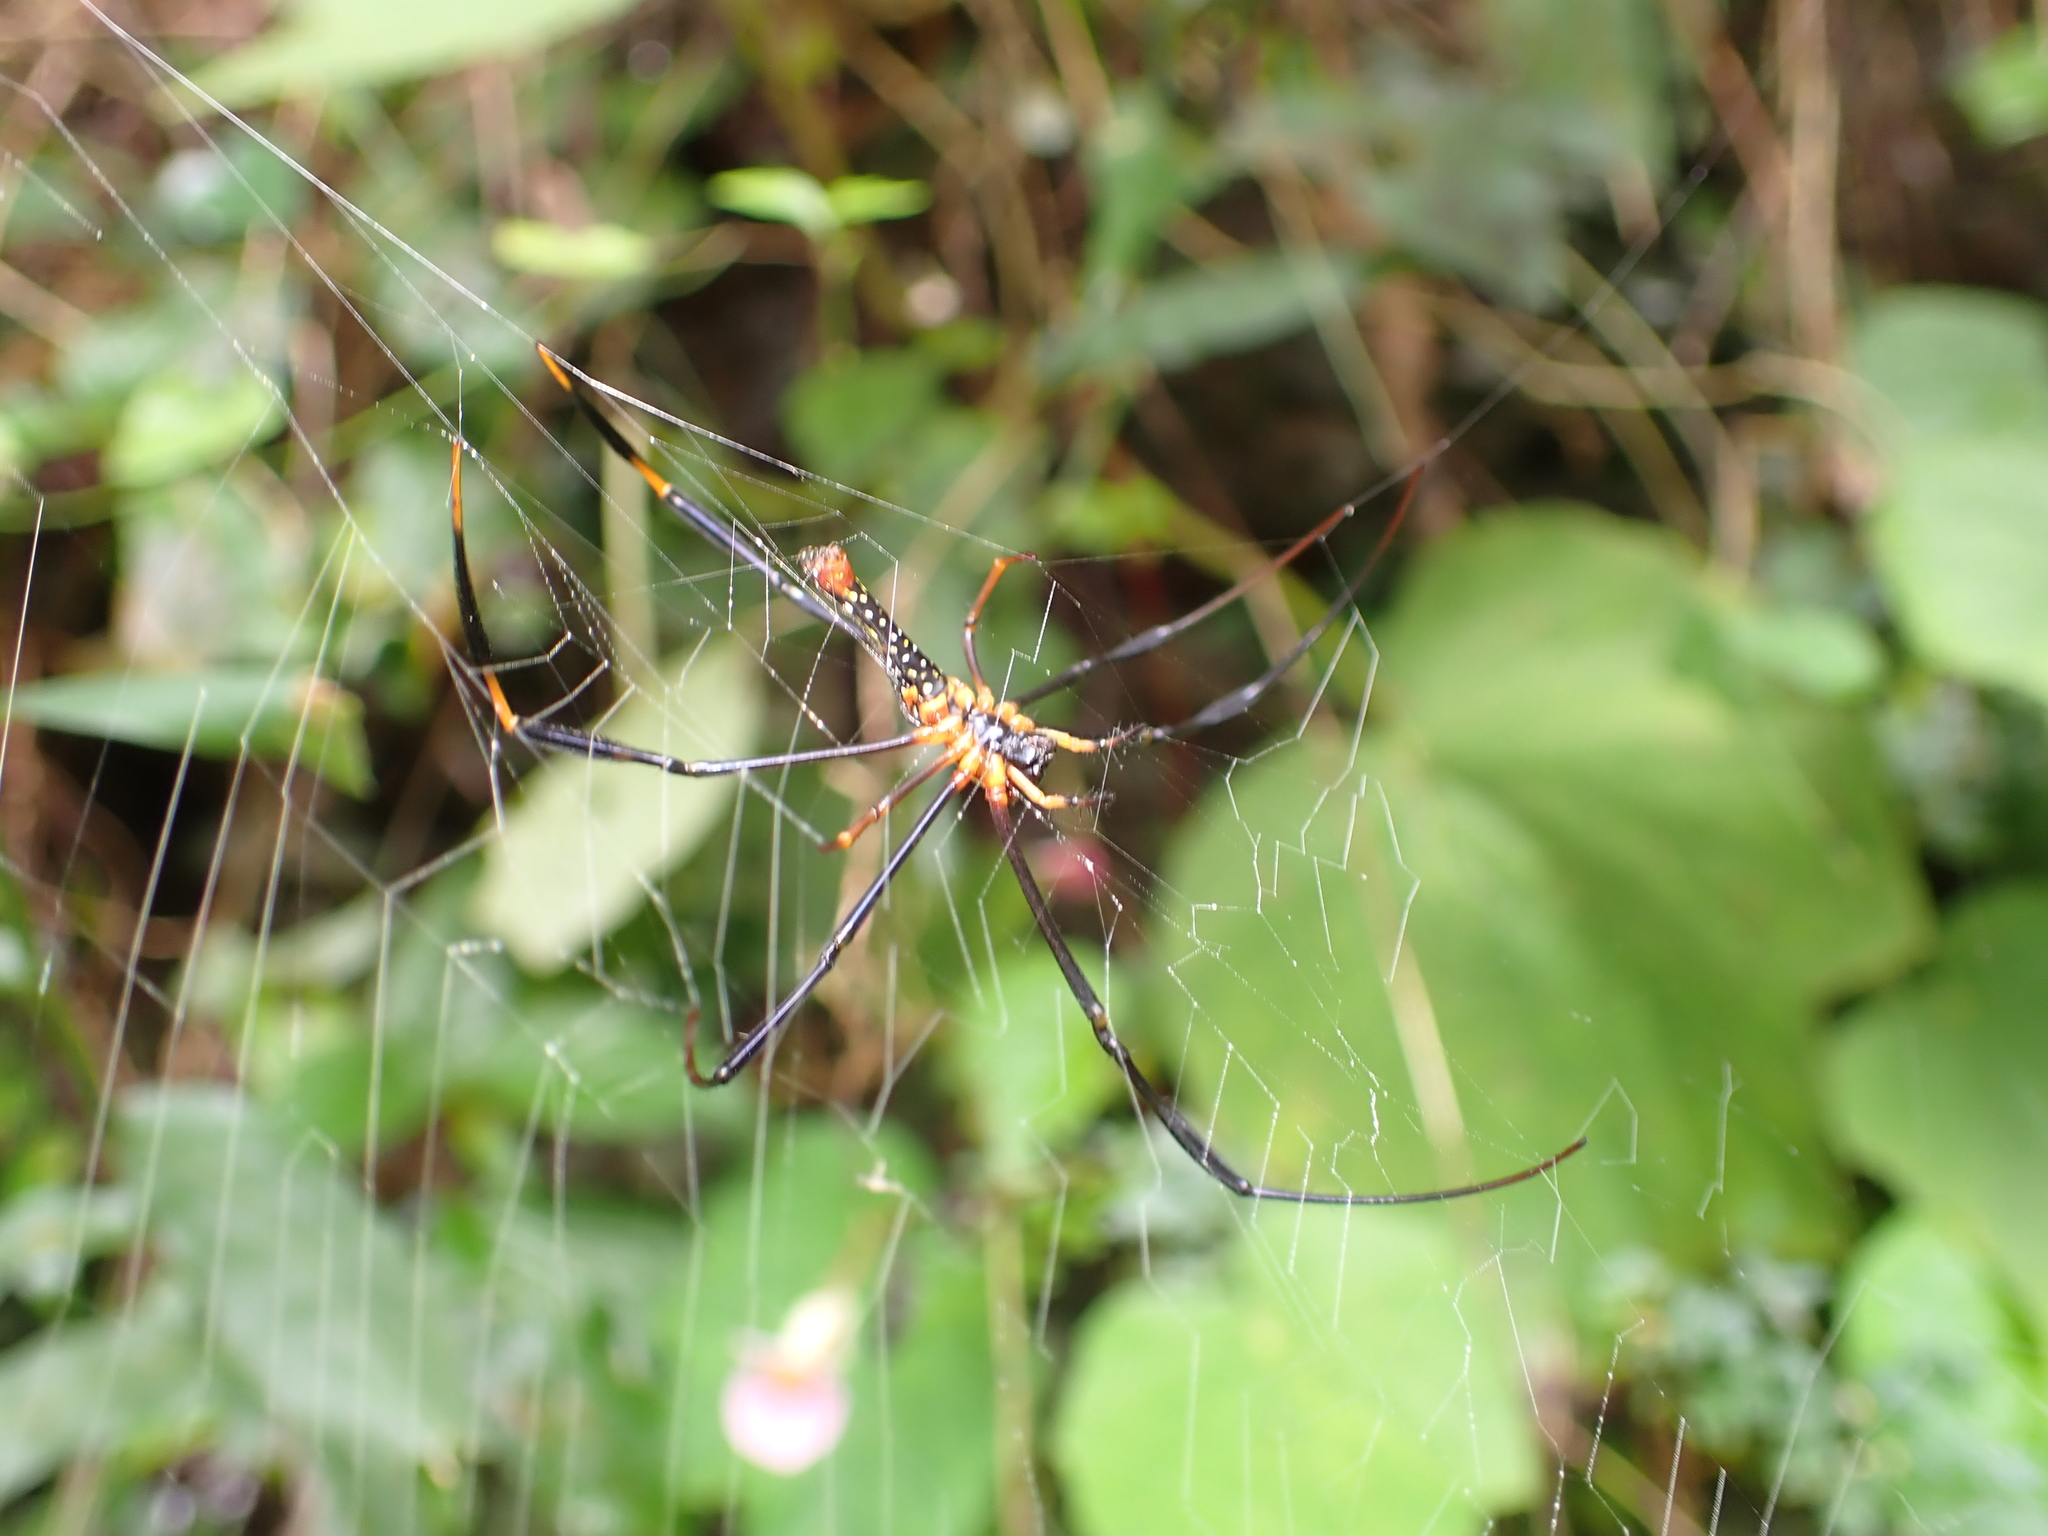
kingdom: Animalia
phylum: Arthropoda
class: Arachnida
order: Araneae
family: Araneidae
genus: Nephila
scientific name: Nephila pilipes
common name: Giant golden orb weaver
